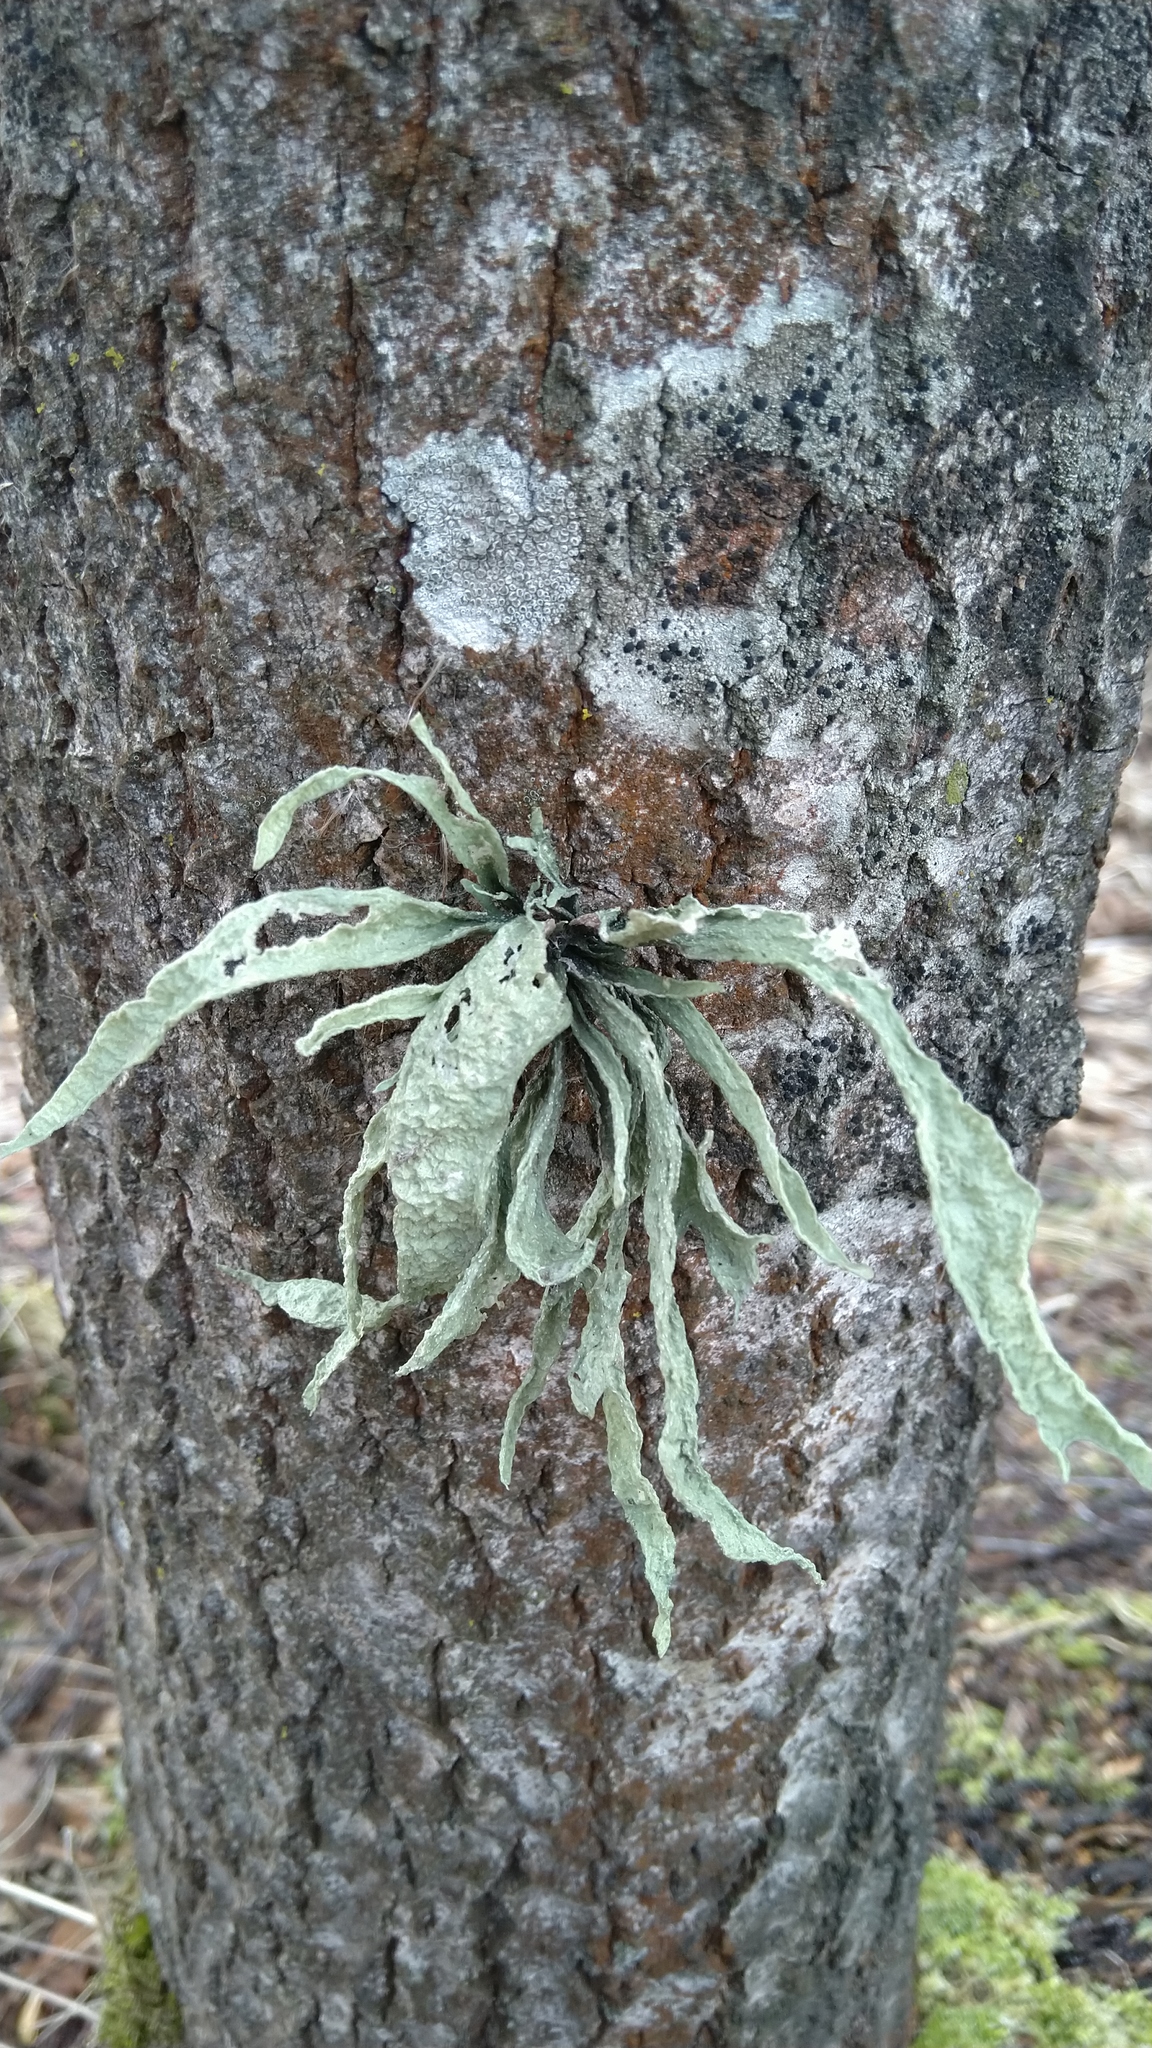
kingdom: Fungi
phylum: Ascomycota
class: Lecanoromycetes
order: Lecanorales
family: Ramalinaceae
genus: Ramalina
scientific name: Ramalina fraxinea
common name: Cartilage lichen
